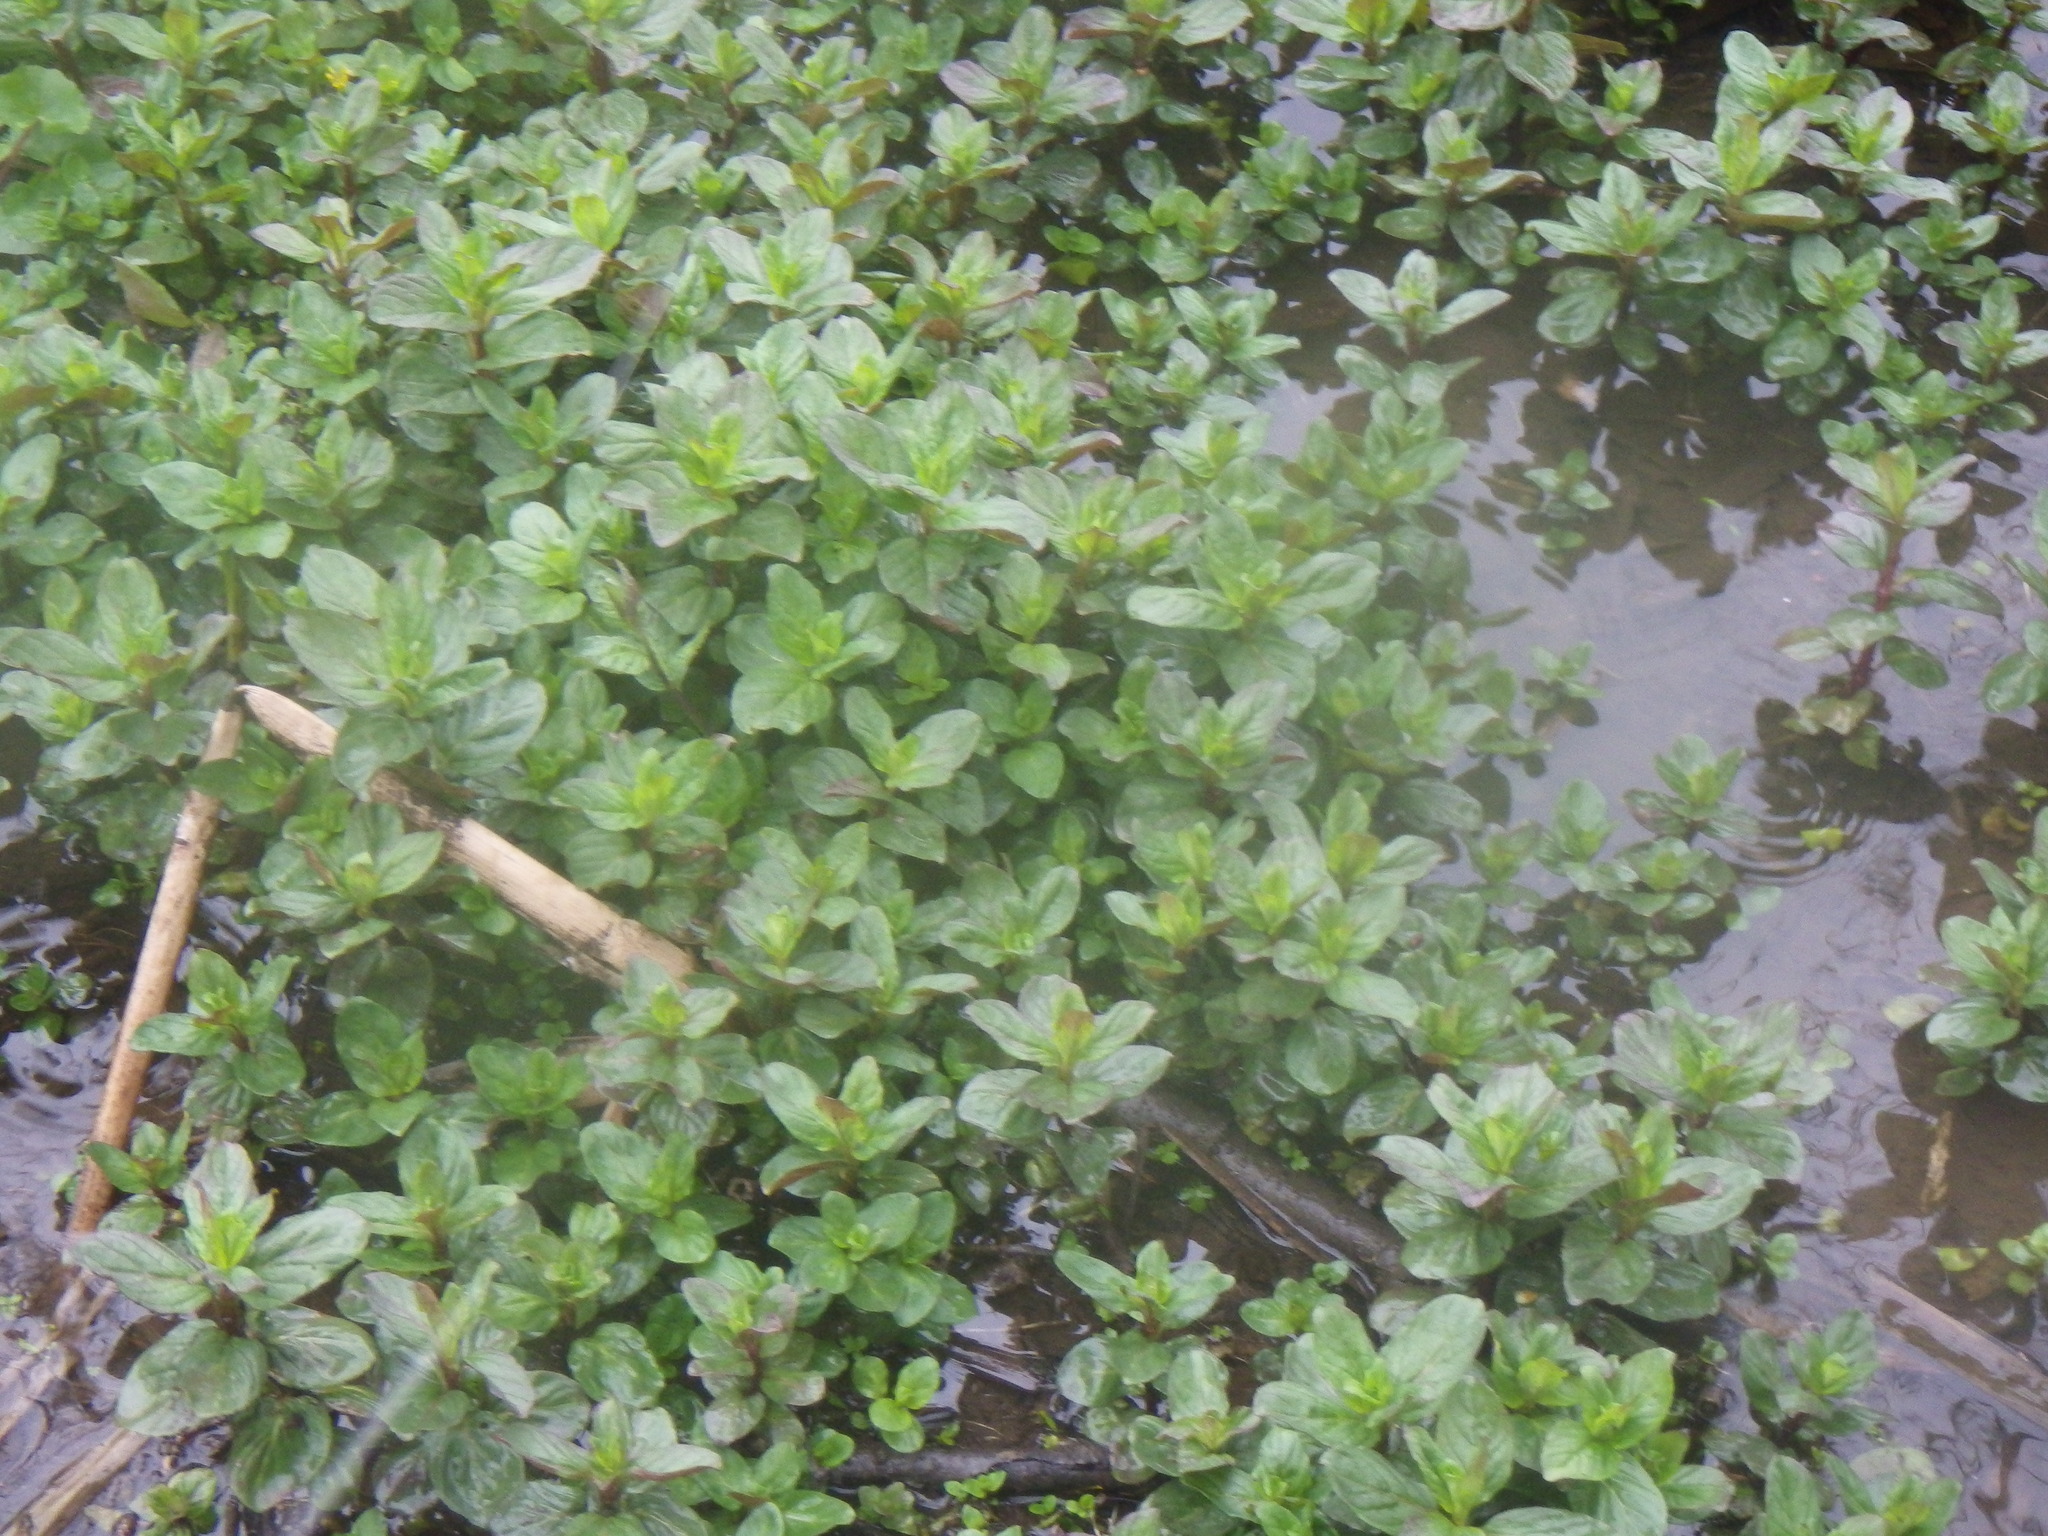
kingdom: Plantae
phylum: Tracheophyta
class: Magnoliopsida
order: Lamiales
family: Lamiaceae
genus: Mentha
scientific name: Mentha aquatica
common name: Water mint
